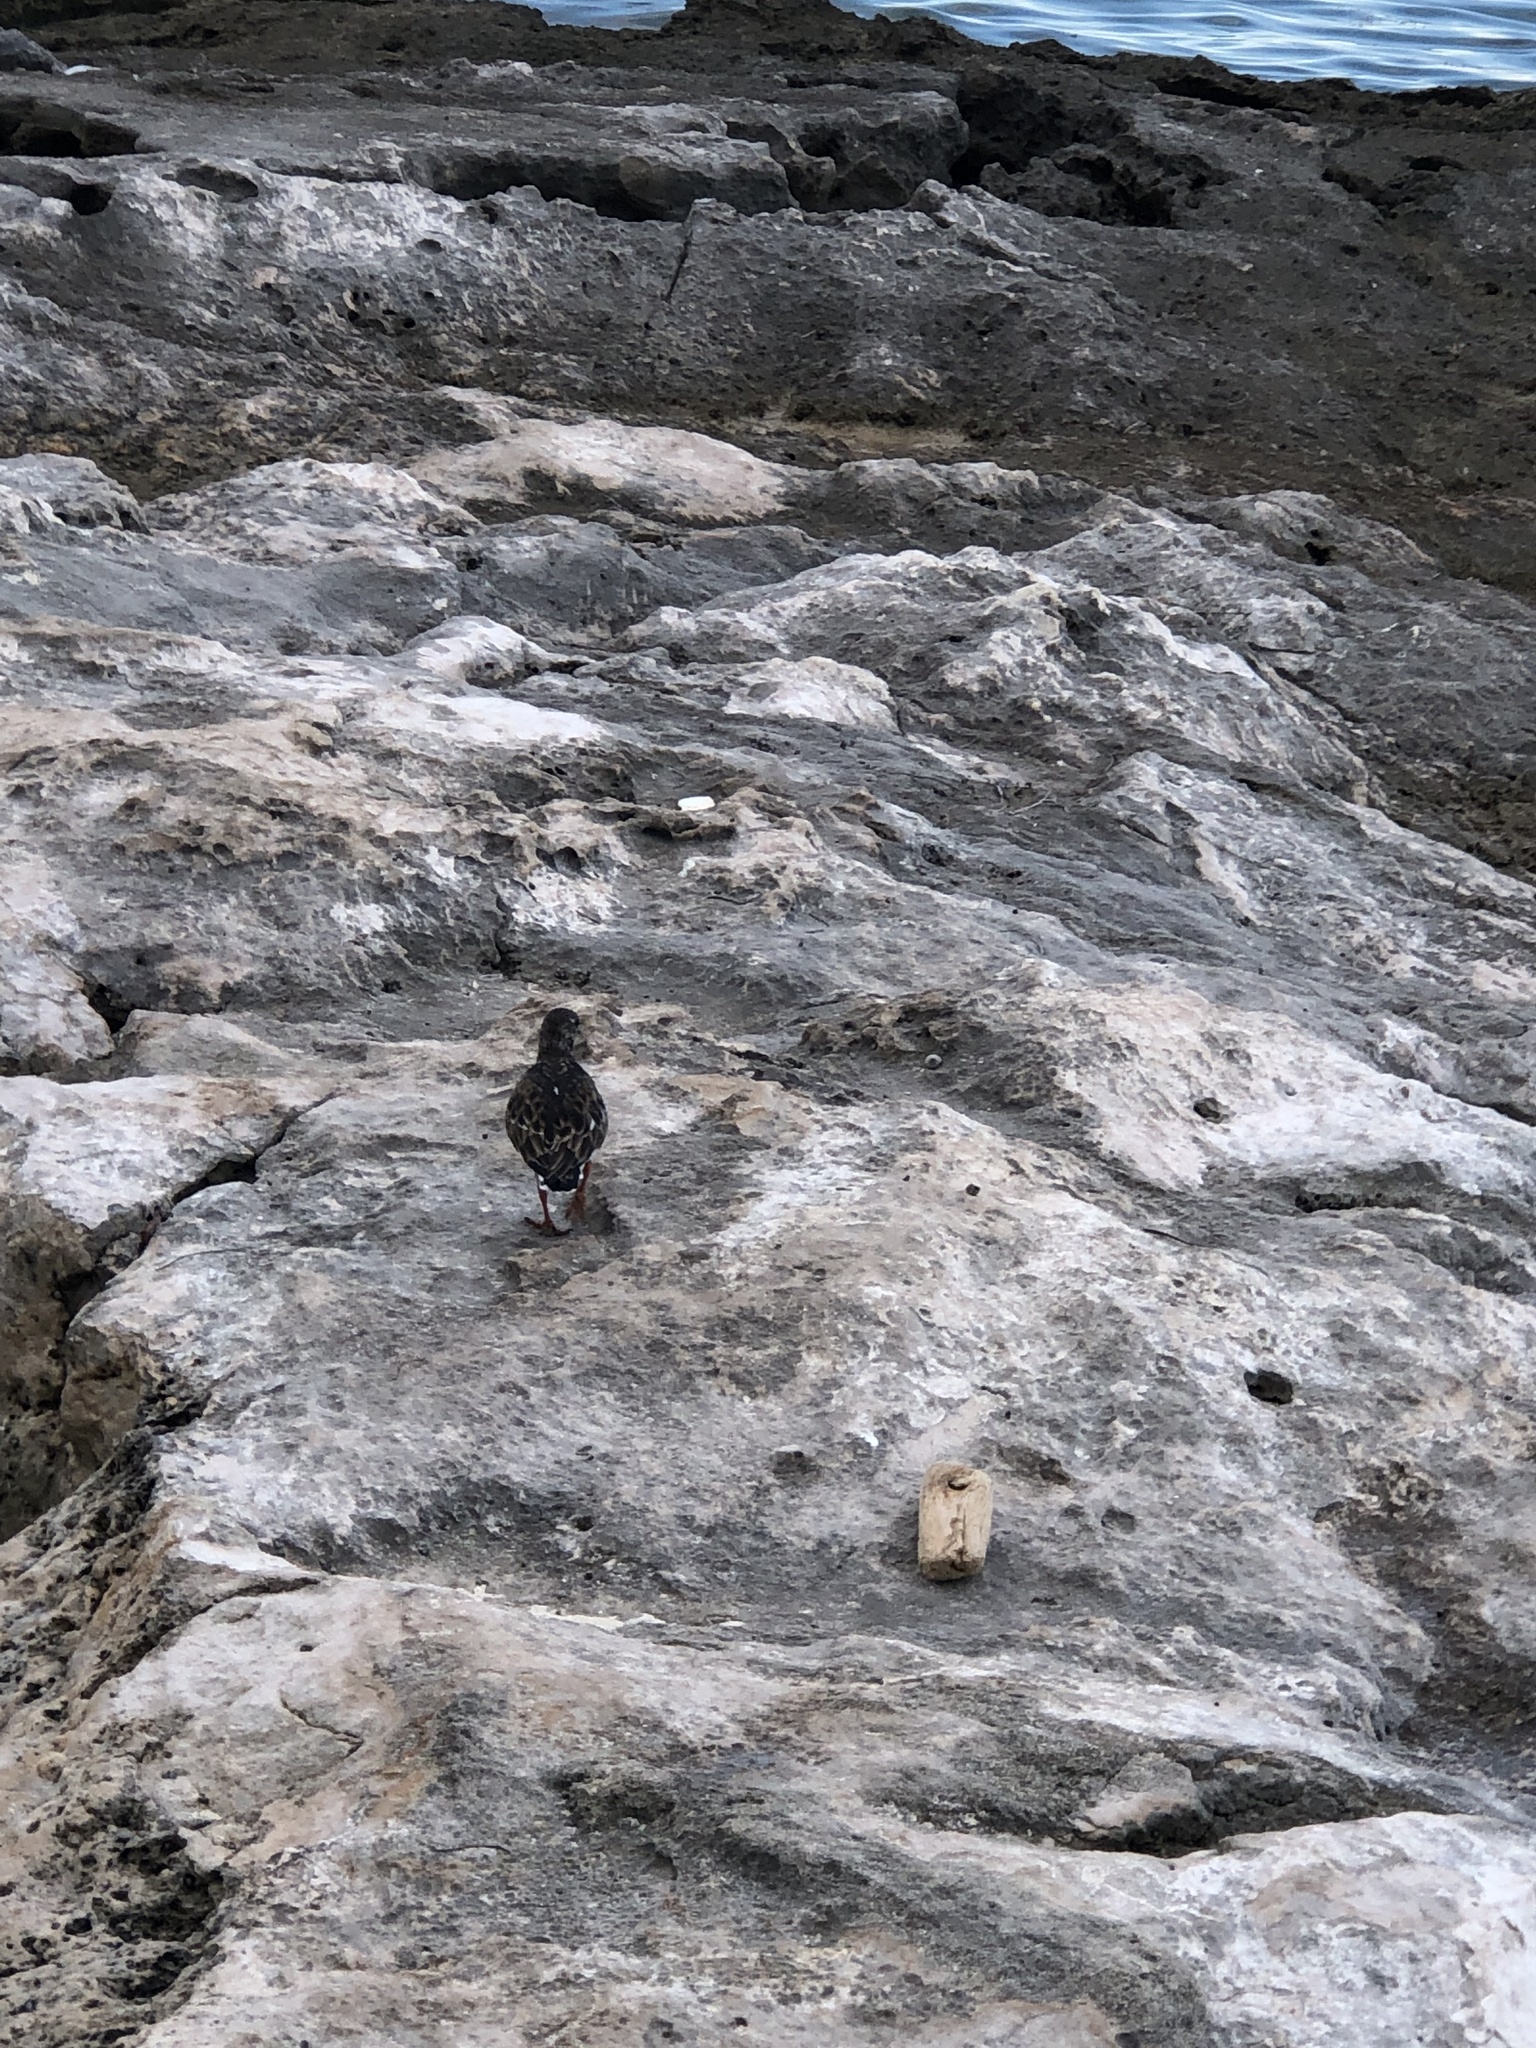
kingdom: Animalia
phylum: Chordata
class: Aves
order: Charadriiformes
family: Scolopacidae
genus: Arenaria
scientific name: Arenaria interpres
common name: Ruddy turnstone
